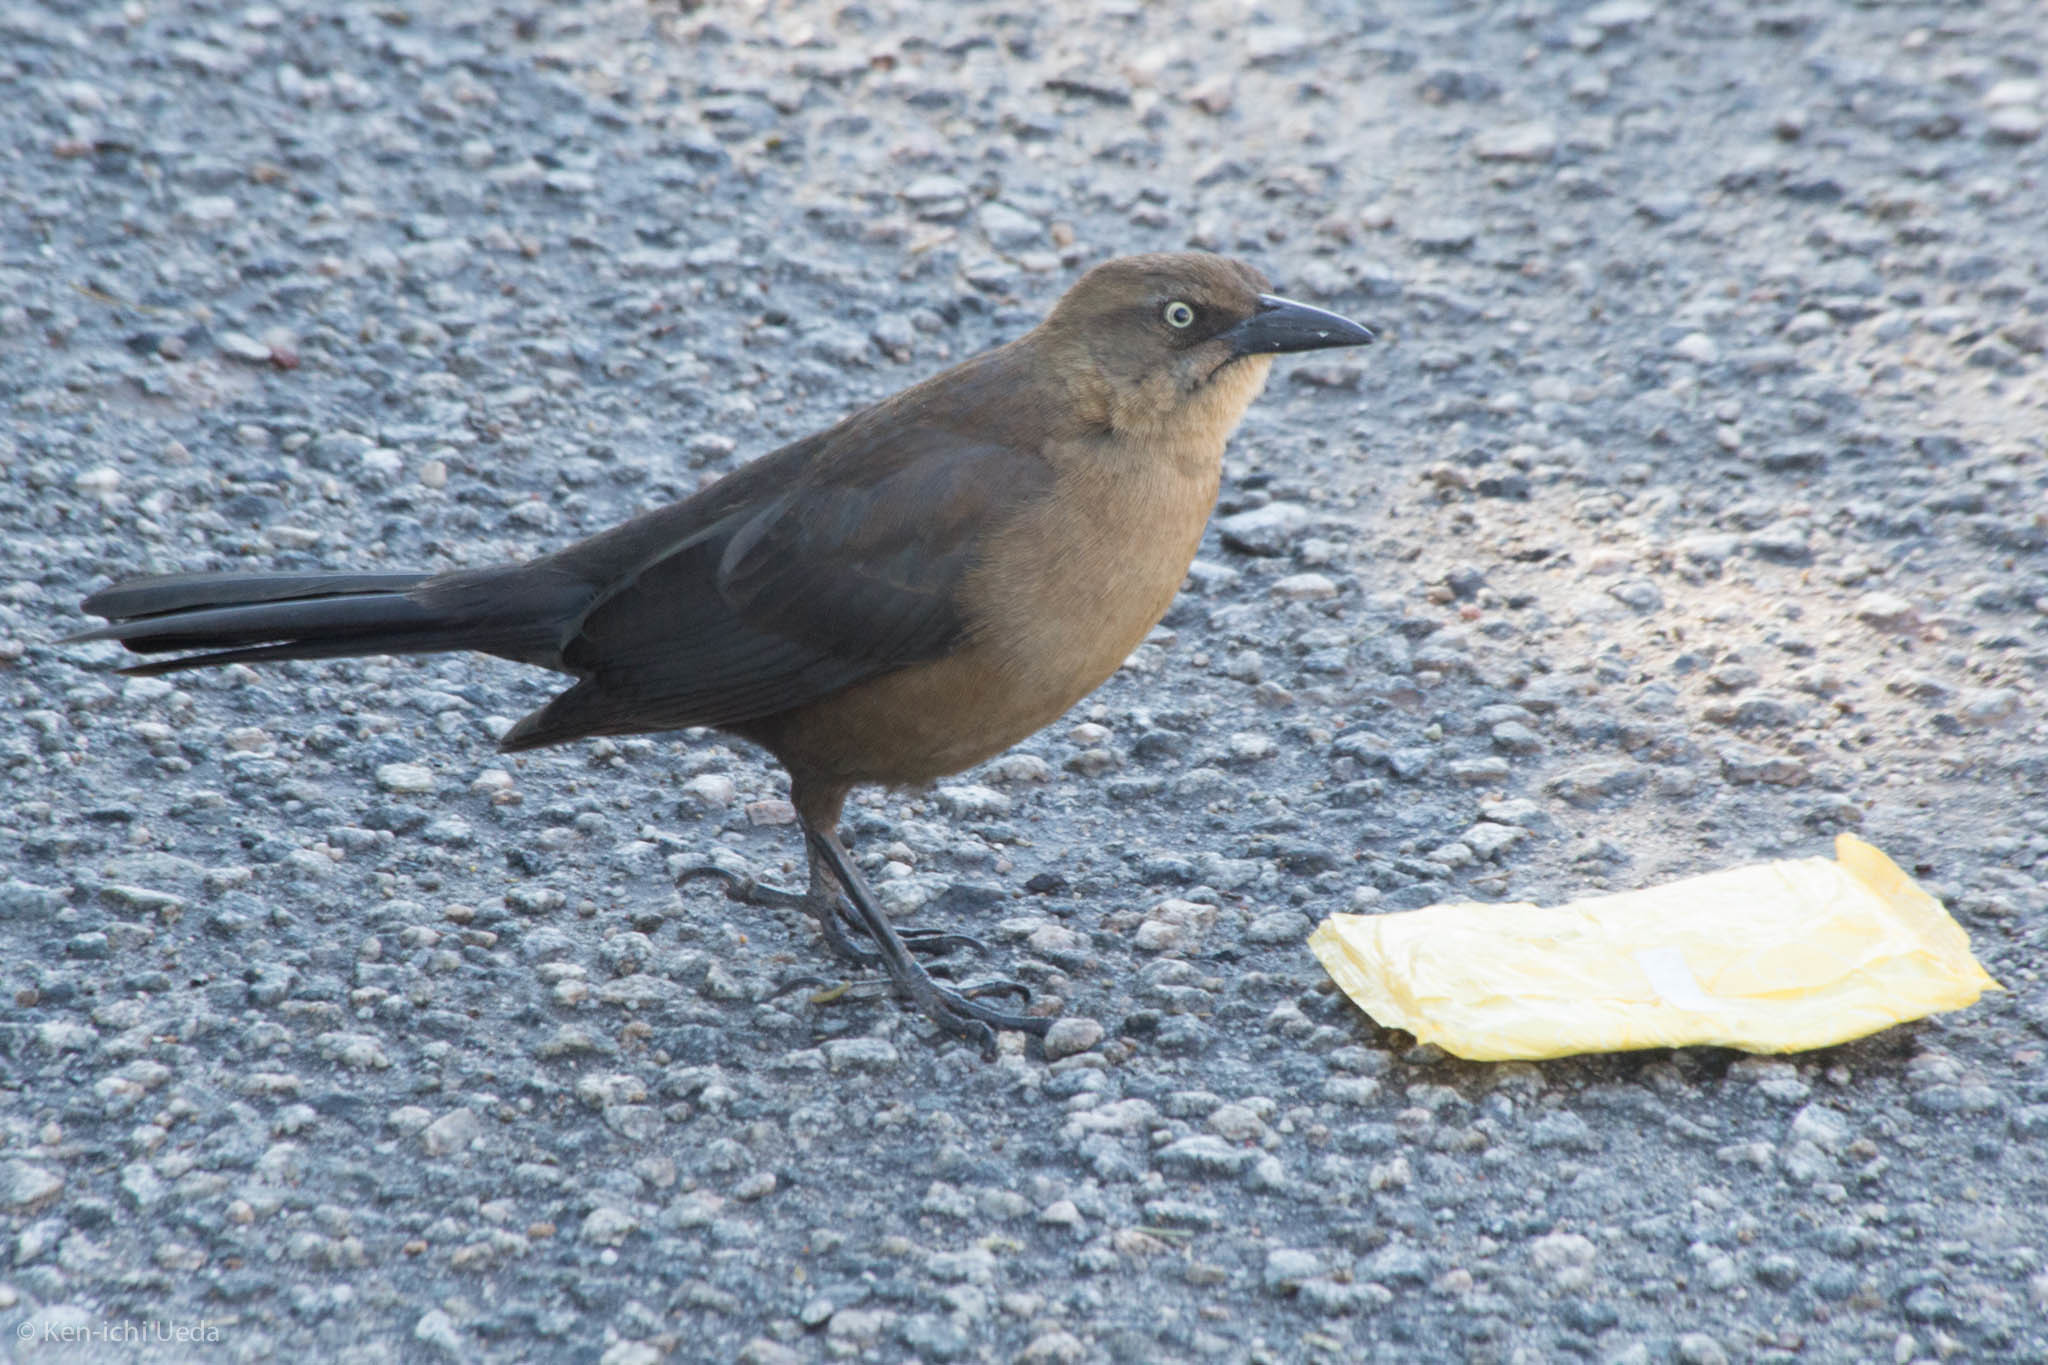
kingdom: Animalia
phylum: Chordata
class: Aves
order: Passeriformes
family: Icteridae
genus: Quiscalus
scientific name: Quiscalus mexicanus
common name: Great-tailed grackle
